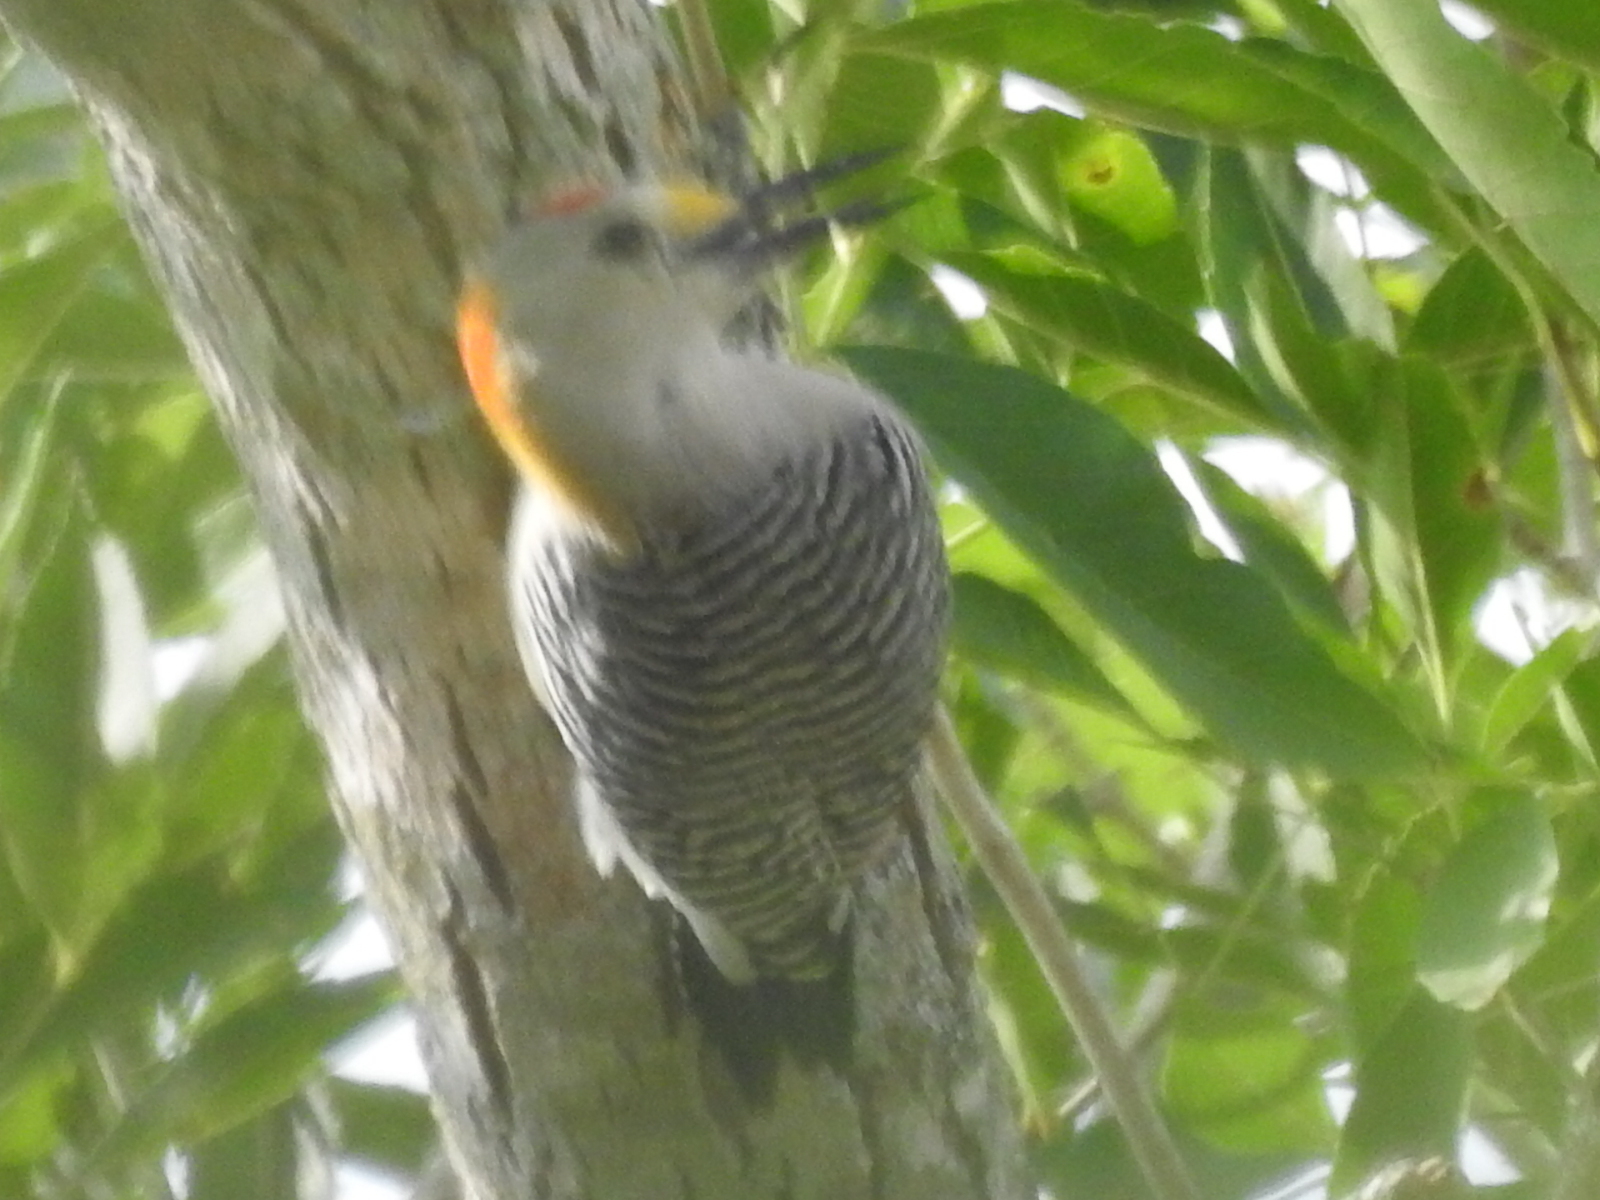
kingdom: Animalia
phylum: Chordata
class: Aves
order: Piciformes
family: Picidae
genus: Melanerpes
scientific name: Melanerpes aurifrons
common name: Golden-fronted woodpecker
